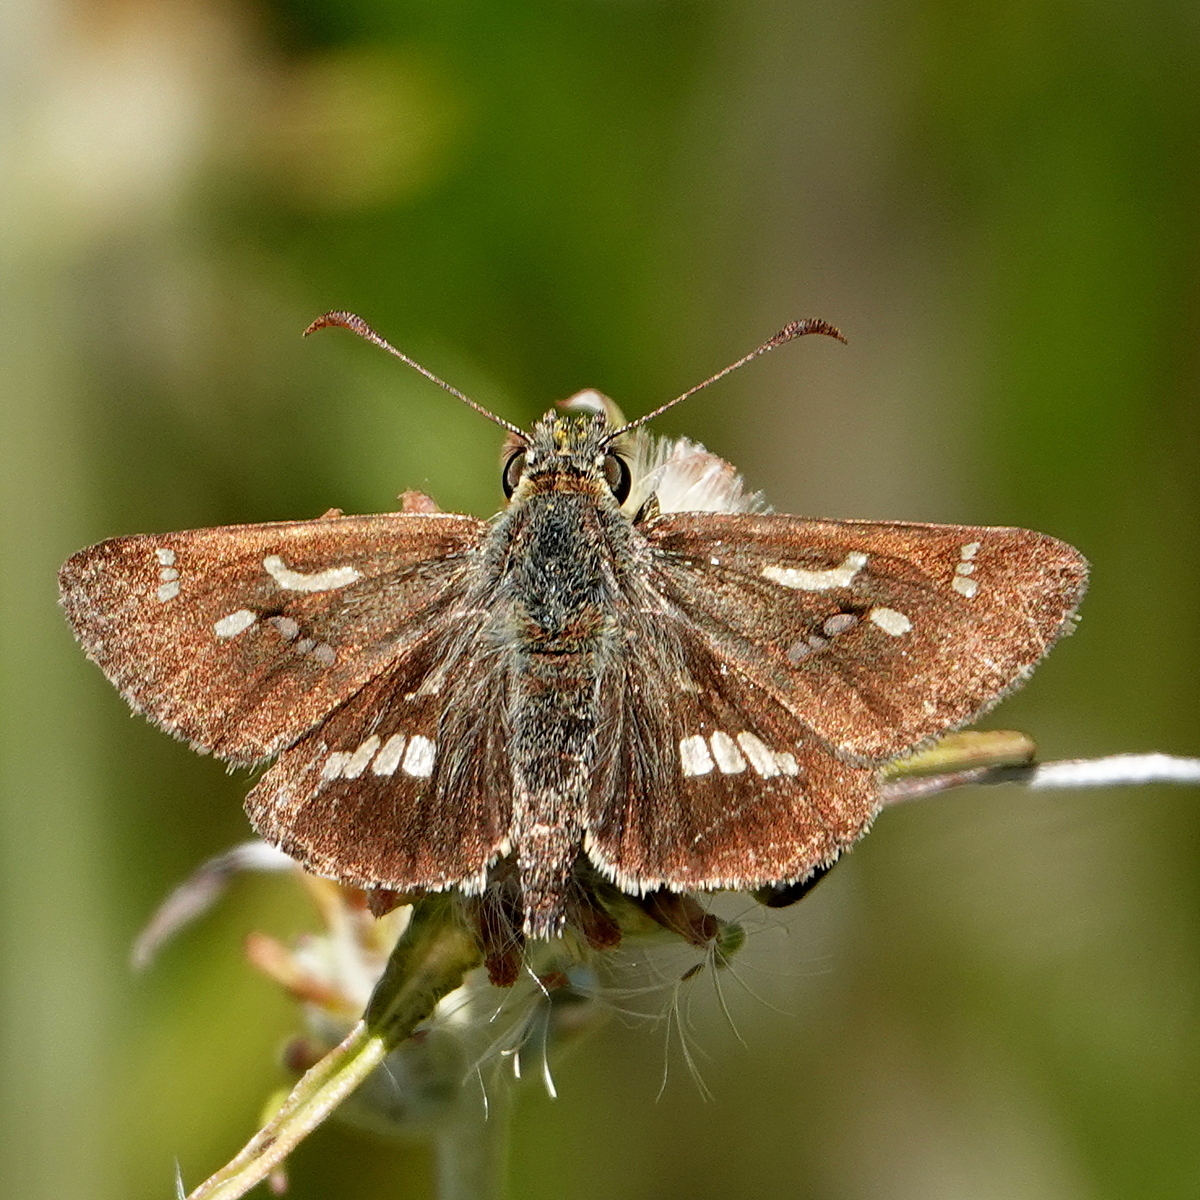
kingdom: Animalia
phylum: Arthropoda
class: Insecta
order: Lepidoptera
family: Hesperiidae
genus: Dispar
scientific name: Dispar compacta
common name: Barred skipper
